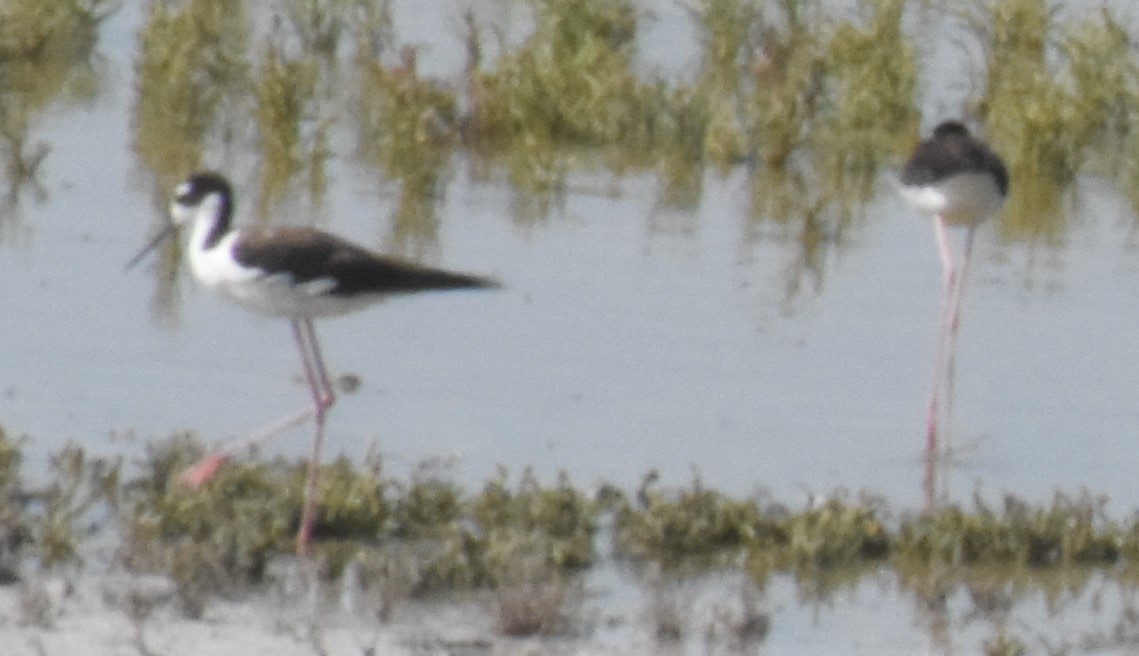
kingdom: Animalia
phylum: Chordata
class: Aves
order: Charadriiformes
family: Recurvirostridae
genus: Himantopus
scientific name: Himantopus mexicanus
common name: Black-necked stilt
